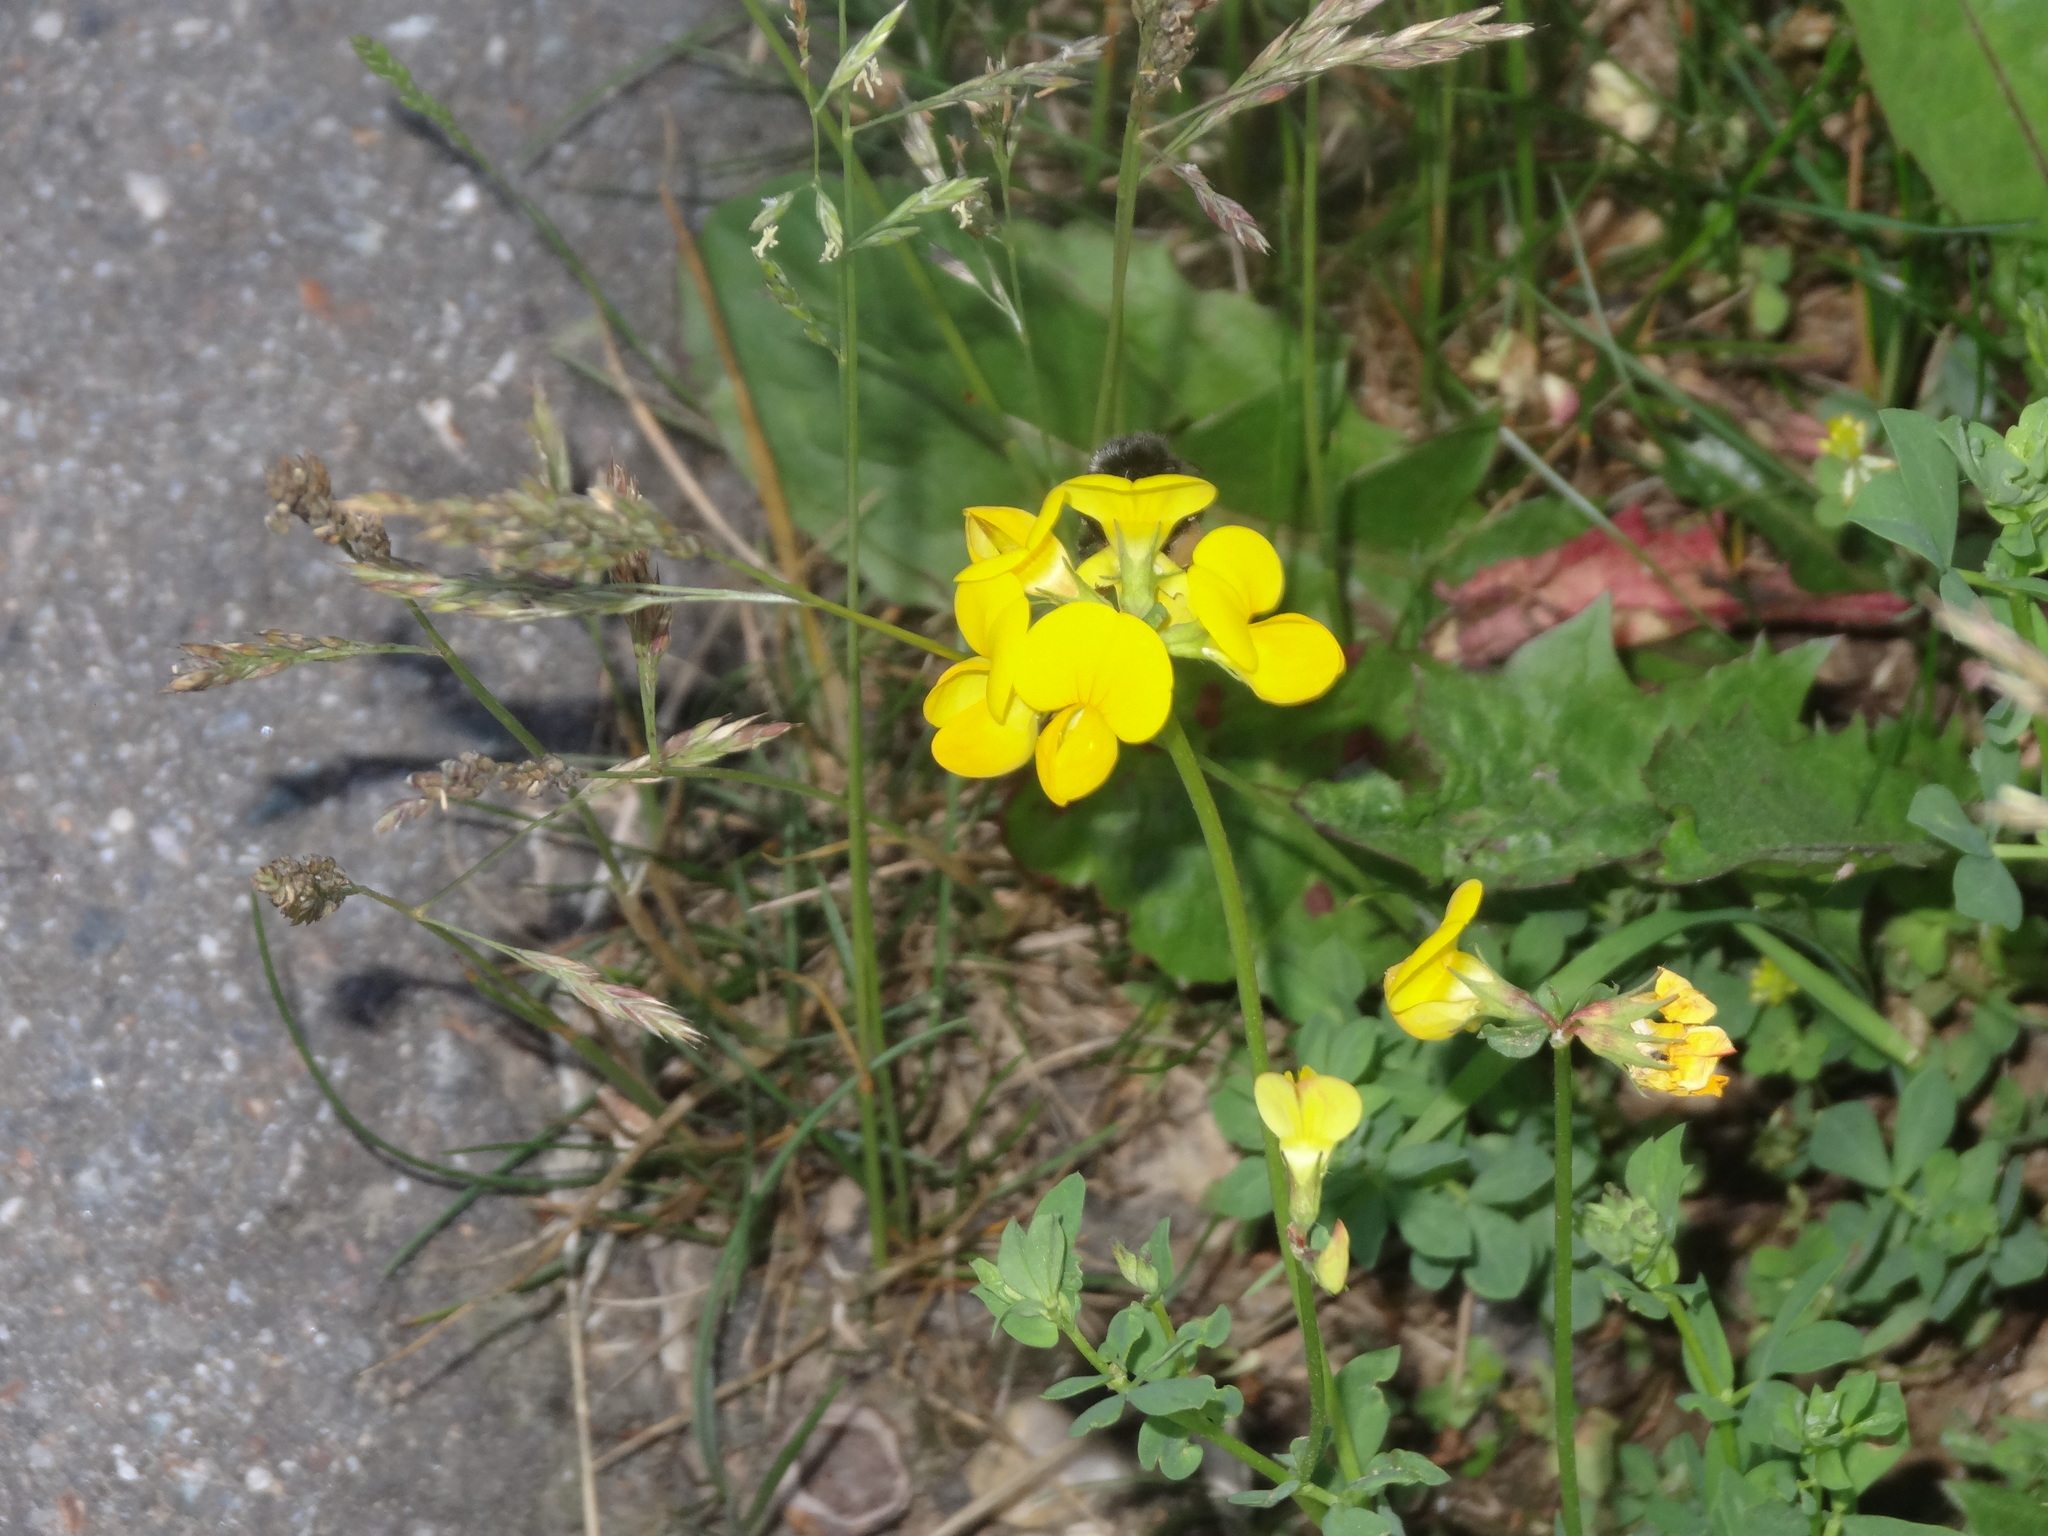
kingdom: Plantae
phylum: Tracheophyta
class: Magnoliopsida
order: Fabales
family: Fabaceae
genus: Lotus
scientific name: Lotus corniculatus
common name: Common bird's-foot-trefoil
